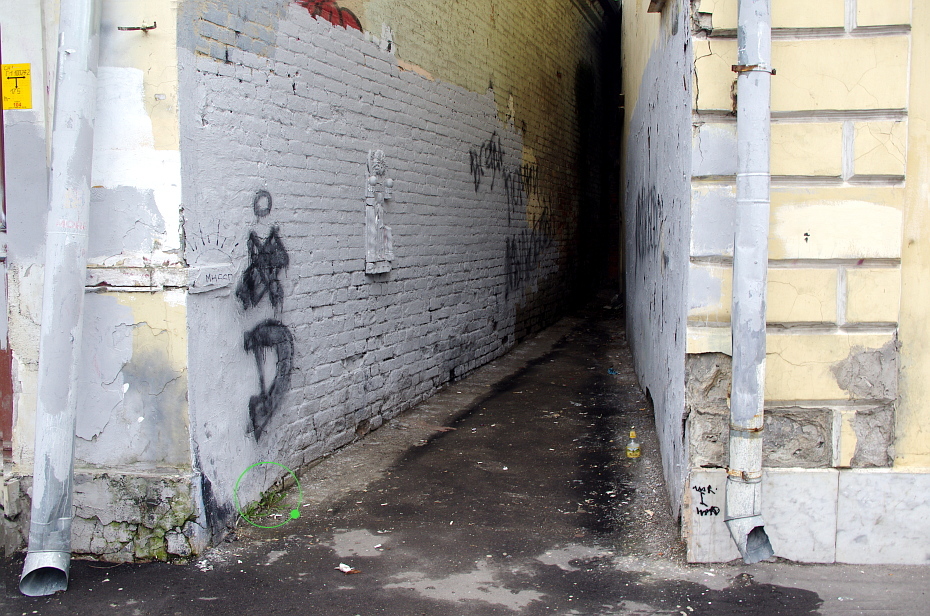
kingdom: Plantae
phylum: Tracheophyta
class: Magnoliopsida
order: Lamiales
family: Plantaginaceae
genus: Plantago
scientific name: Plantago major
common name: Common plantain
